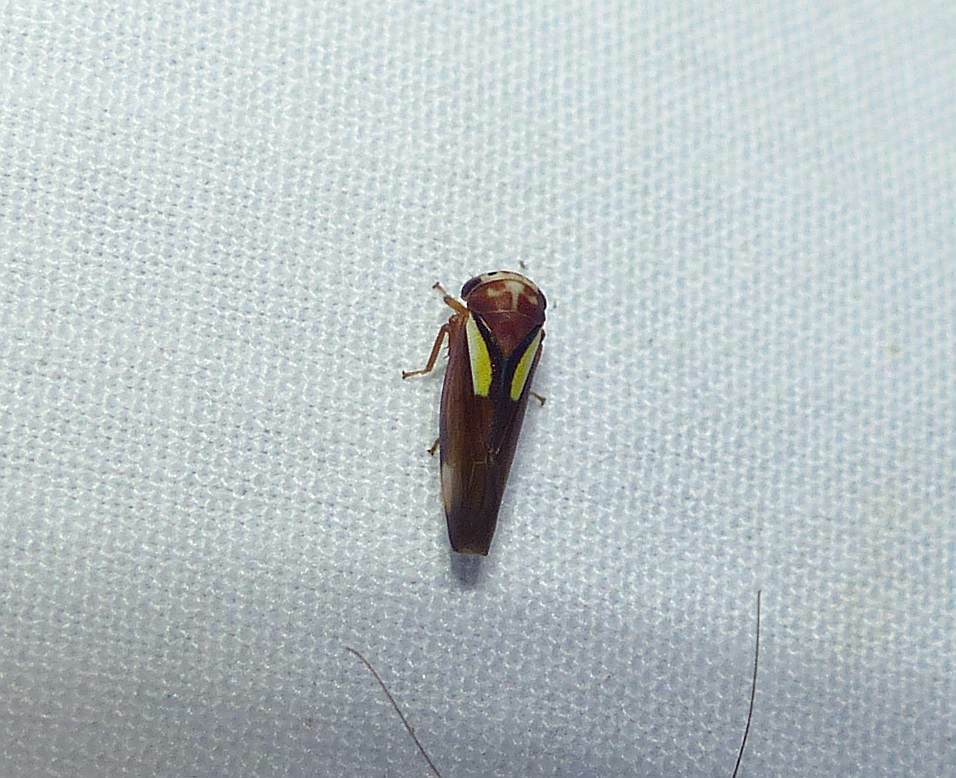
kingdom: Animalia
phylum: Arthropoda
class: Insecta
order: Hemiptera
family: Cicadellidae
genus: Balcanocerus
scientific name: Balcanocerus provancheri
